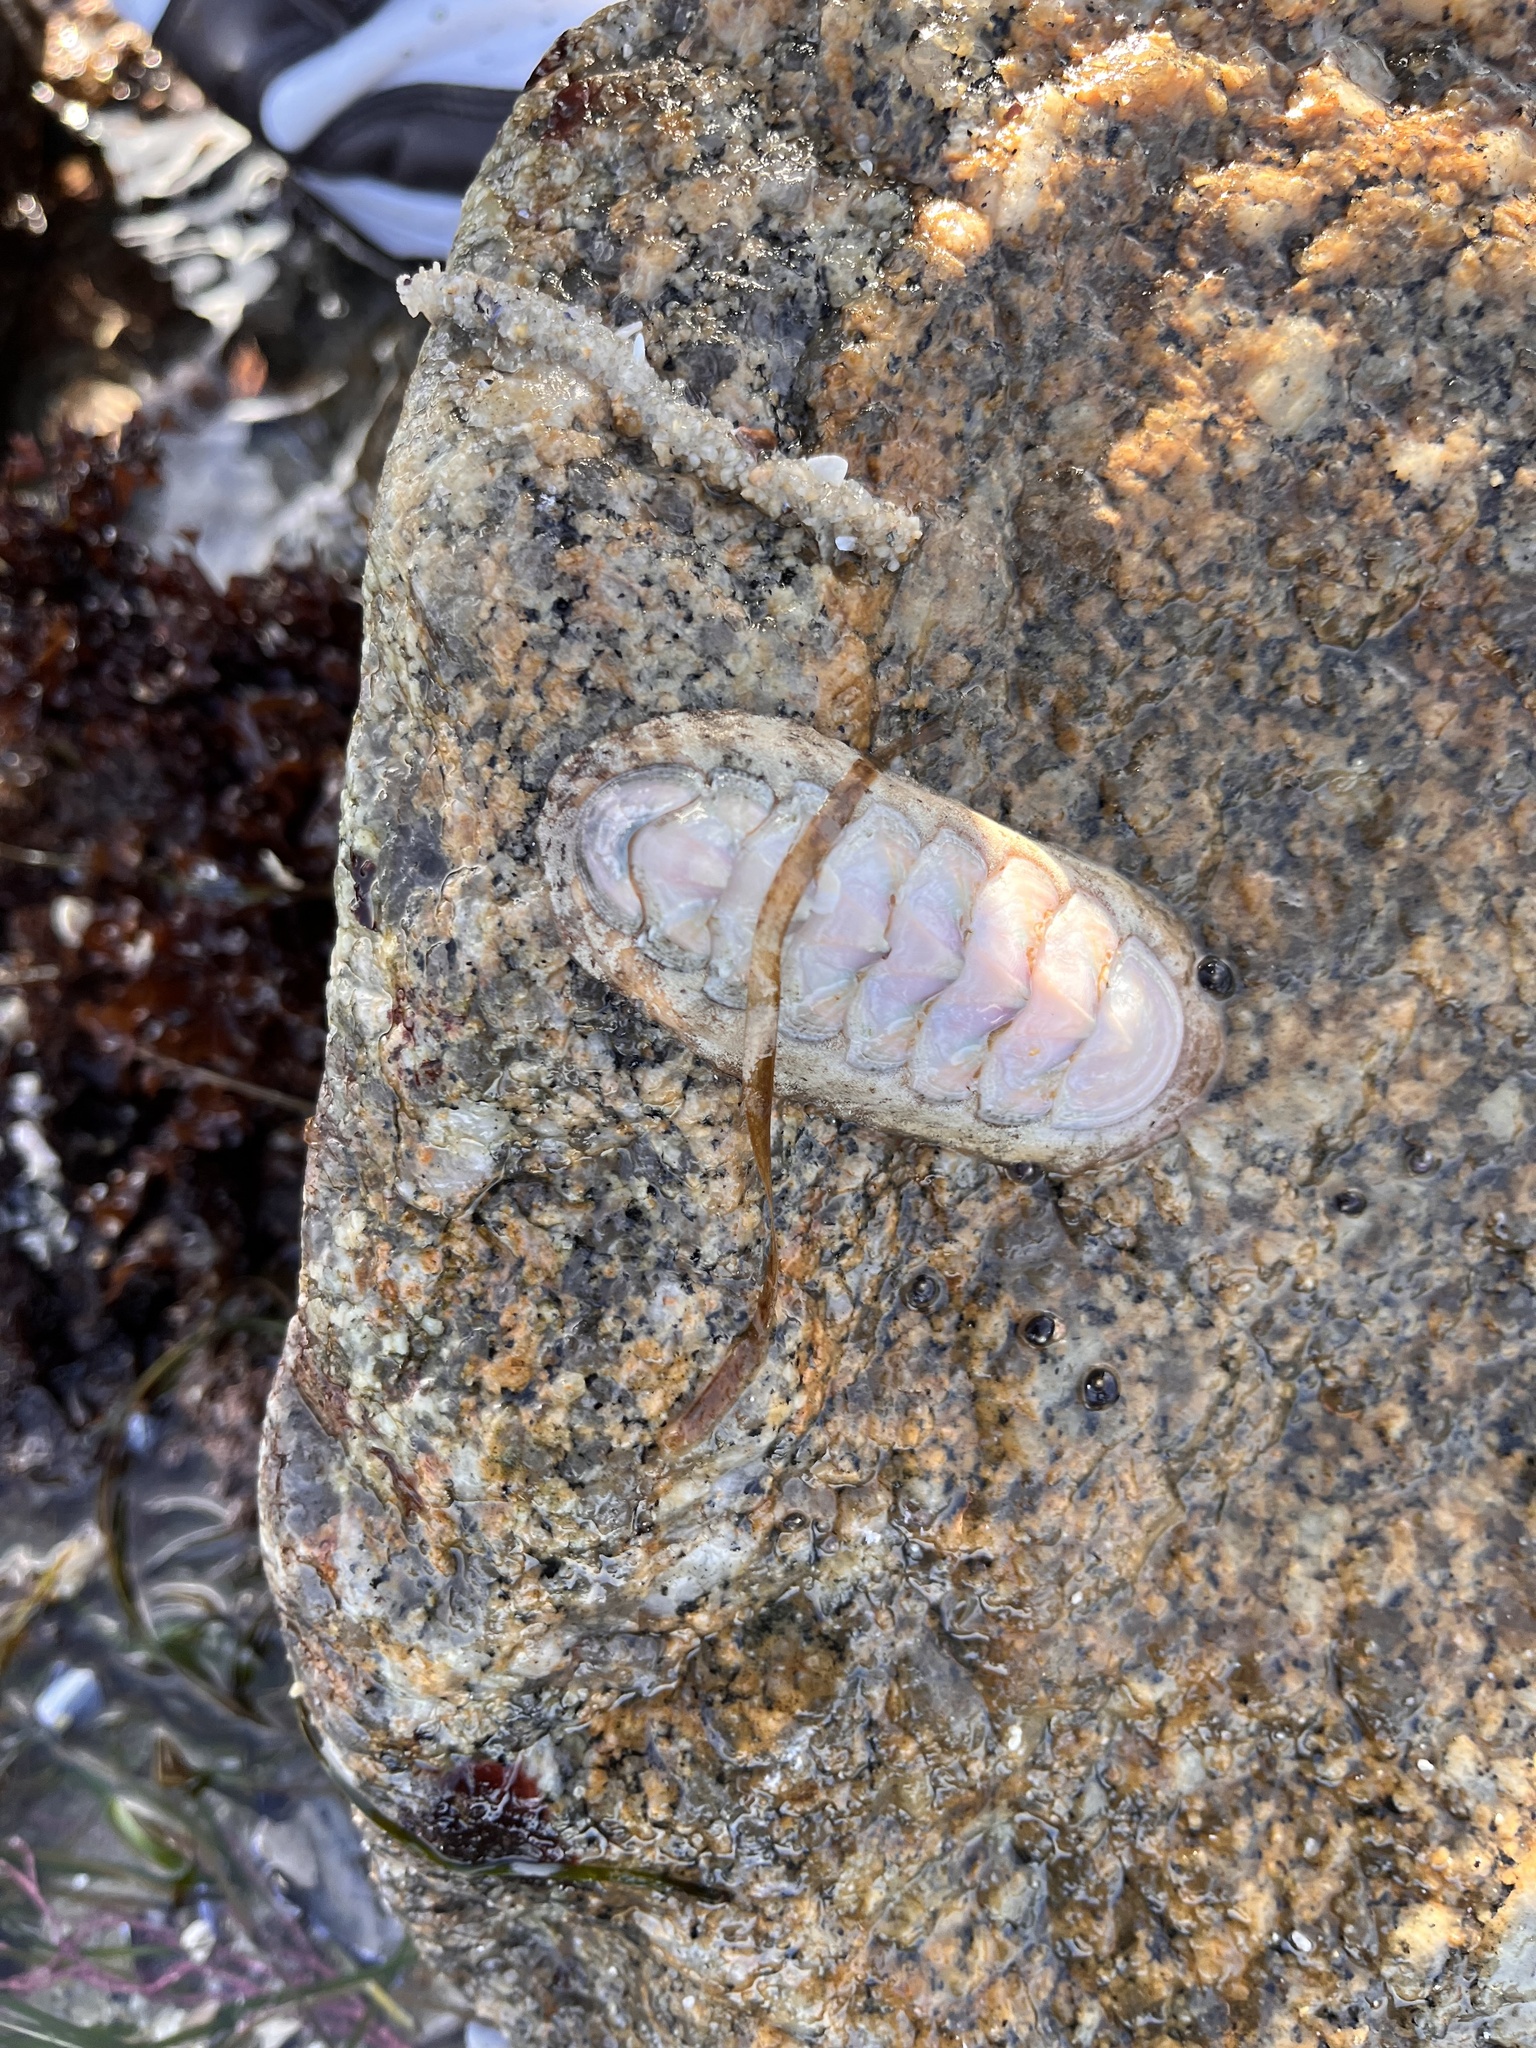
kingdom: Animalia
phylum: Mollusca
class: Polyplacophora
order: Chitonida
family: Ischnochitonidae
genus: Stenoplax
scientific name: Stenoplax heathiana
